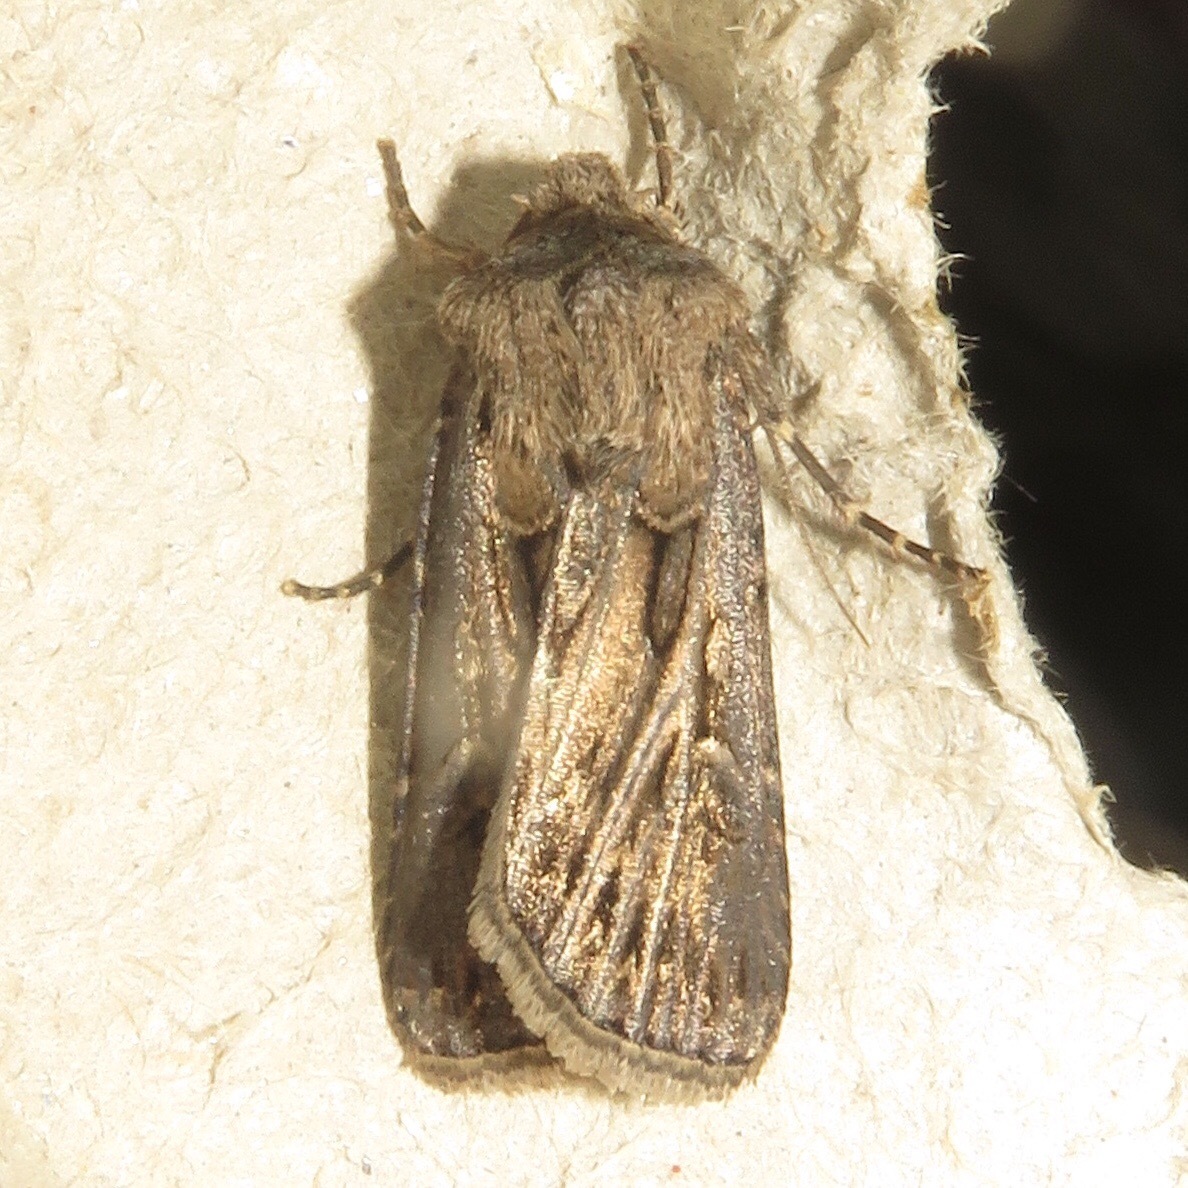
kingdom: Animalia
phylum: Arthropoda
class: Insecta
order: Lepidoptera
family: Noctuidae
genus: Agrotis
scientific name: Agrotis gladiaria
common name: Claybacked cutworm
